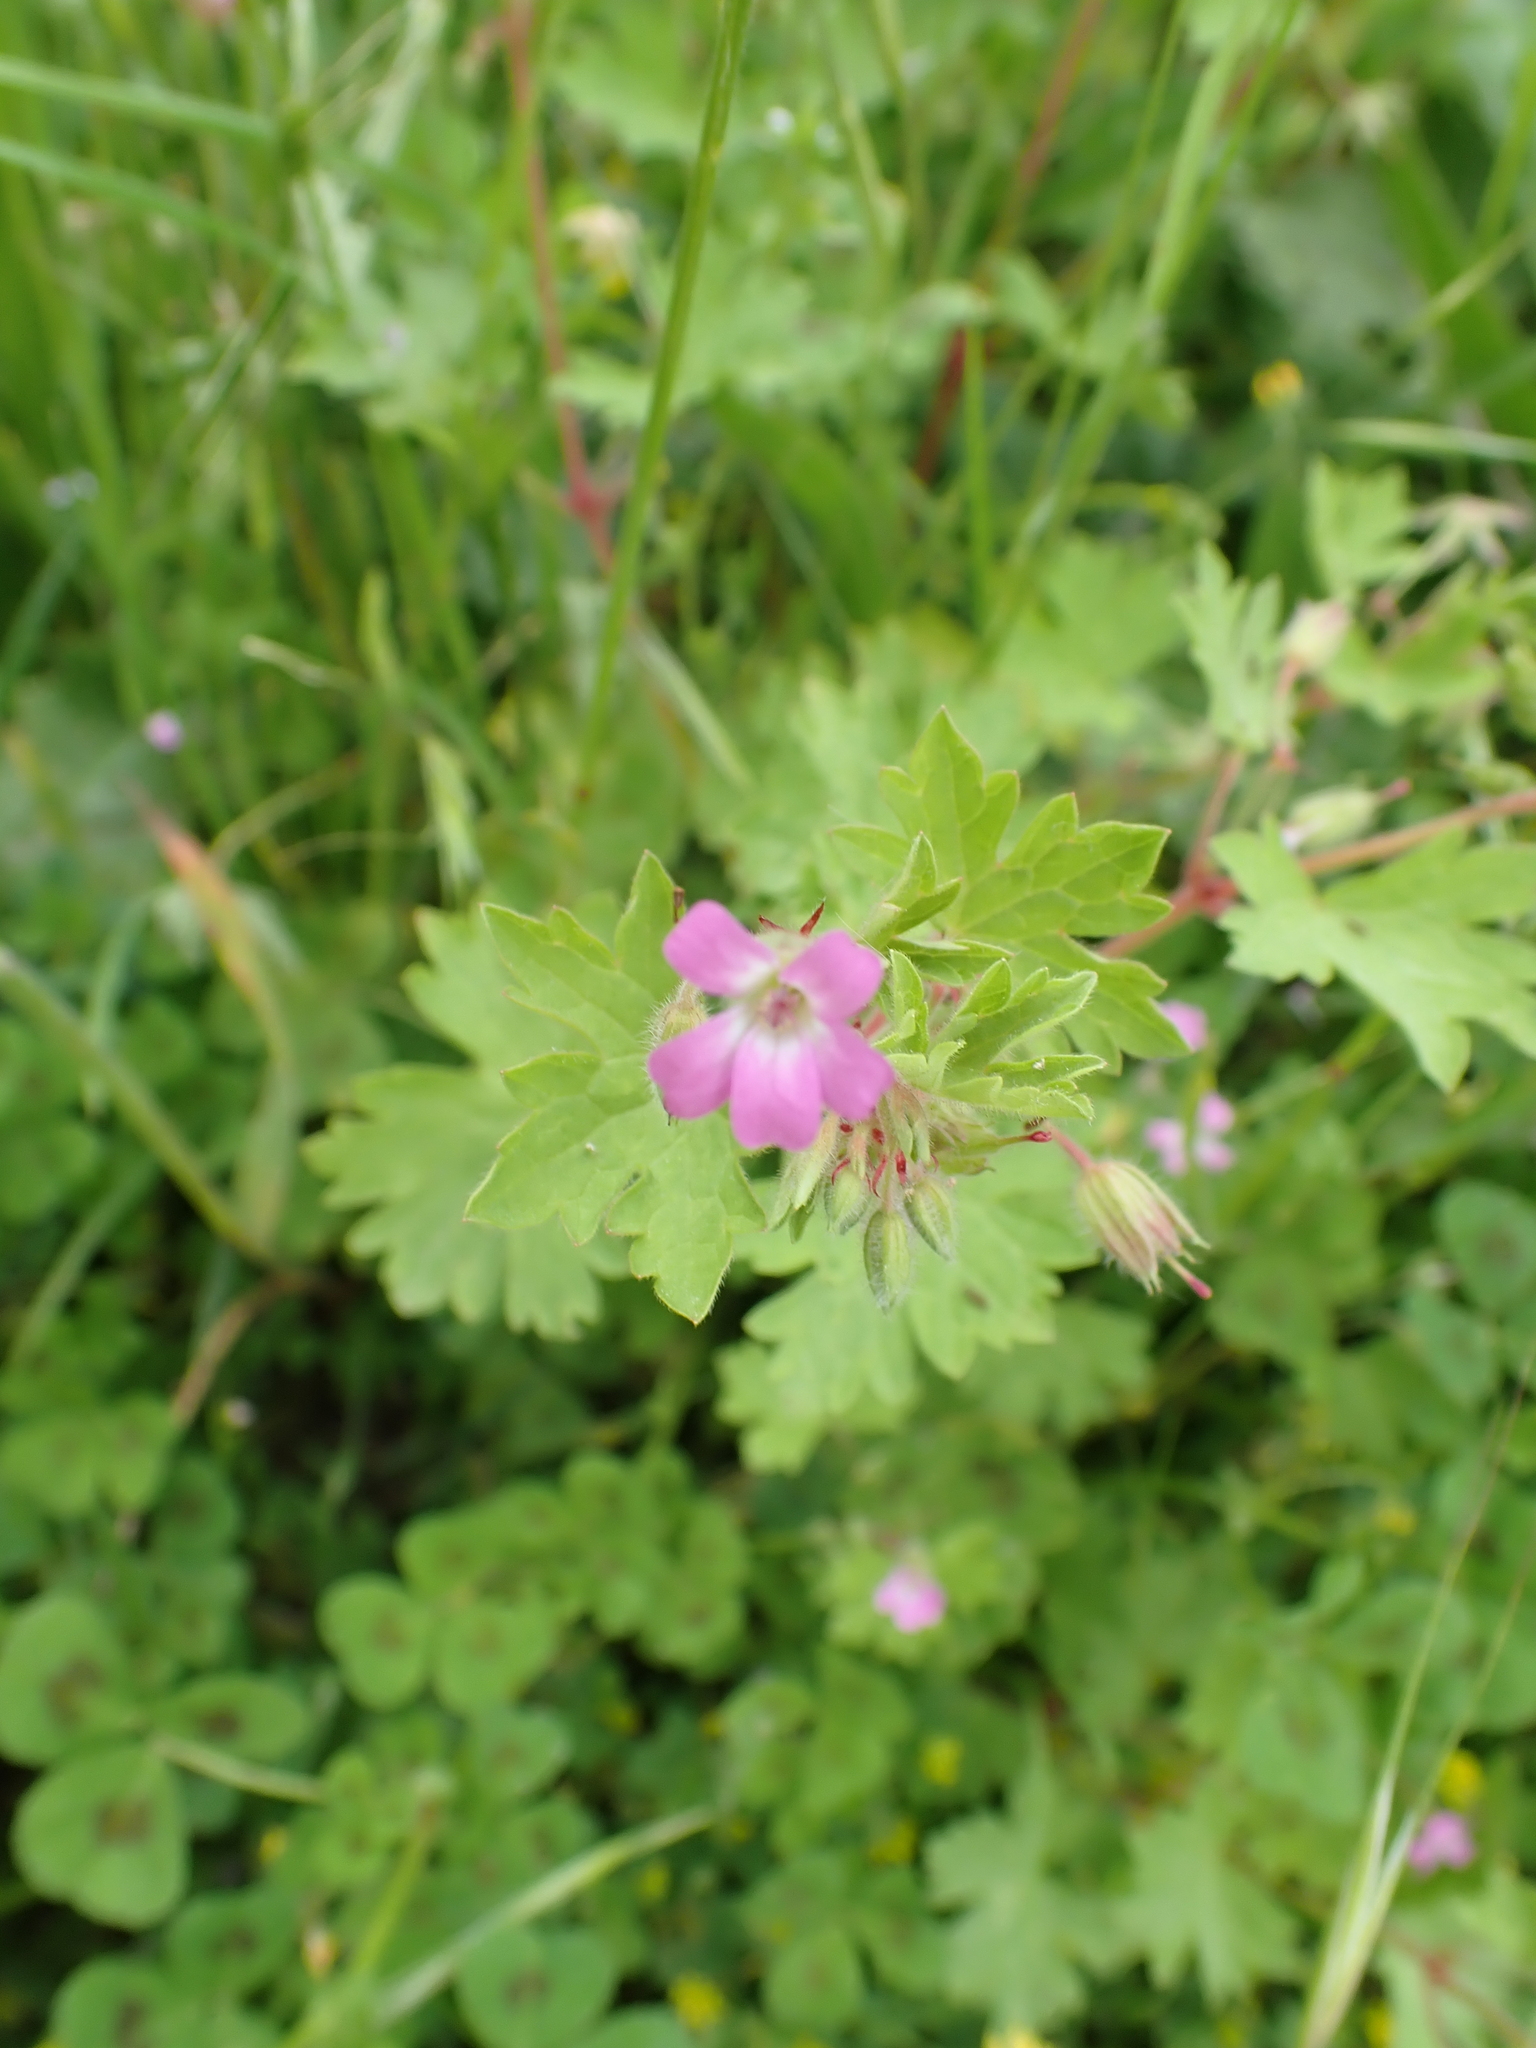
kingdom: Plantae
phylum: Tracheophyta
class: Magnoliopsida
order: Geraniales
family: Geraniaceae
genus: Geranium
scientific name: Geranium rotundifolium
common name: Round-leaved crane's-bill
